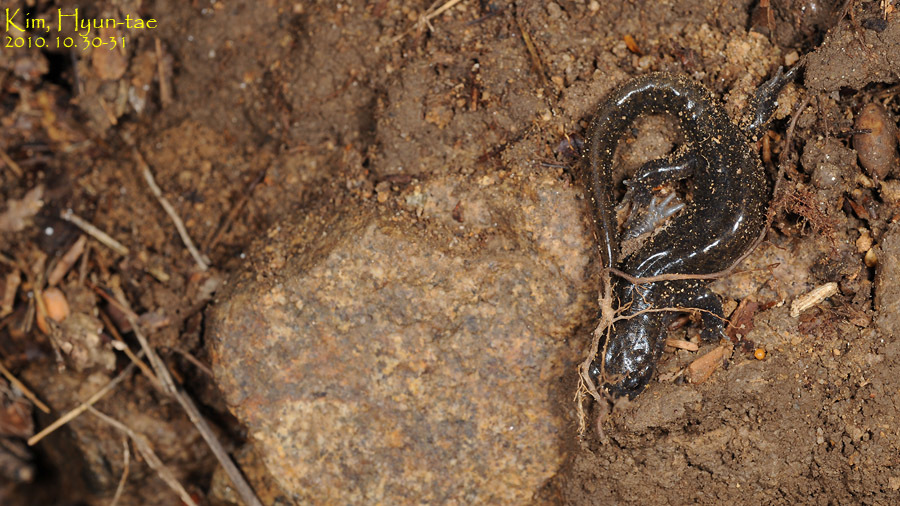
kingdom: Animalia
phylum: Chordata
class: Amphibia
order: Caudata
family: Hynobiidae
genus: Hynobius
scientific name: Hynobius leechii
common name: Gensan salamander
